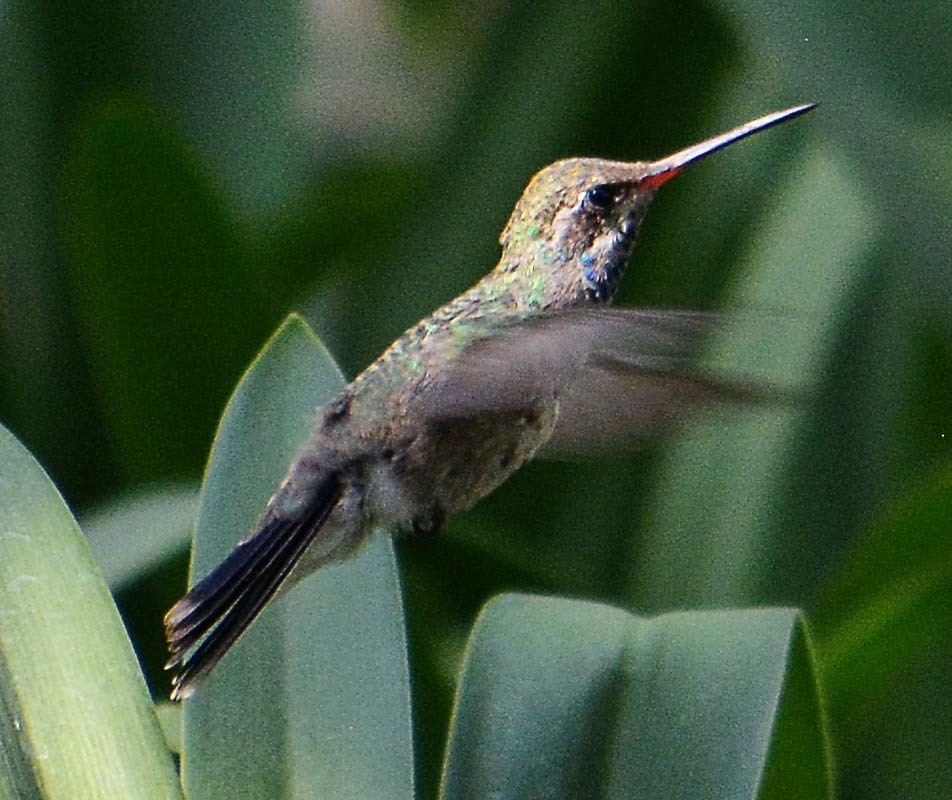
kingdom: Animalia
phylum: Chordata
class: Aves
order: Apodiformes
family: Trochilidae
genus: Cynanthus
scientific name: Cynanthus latirostris
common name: Broad-billed hummingbird
